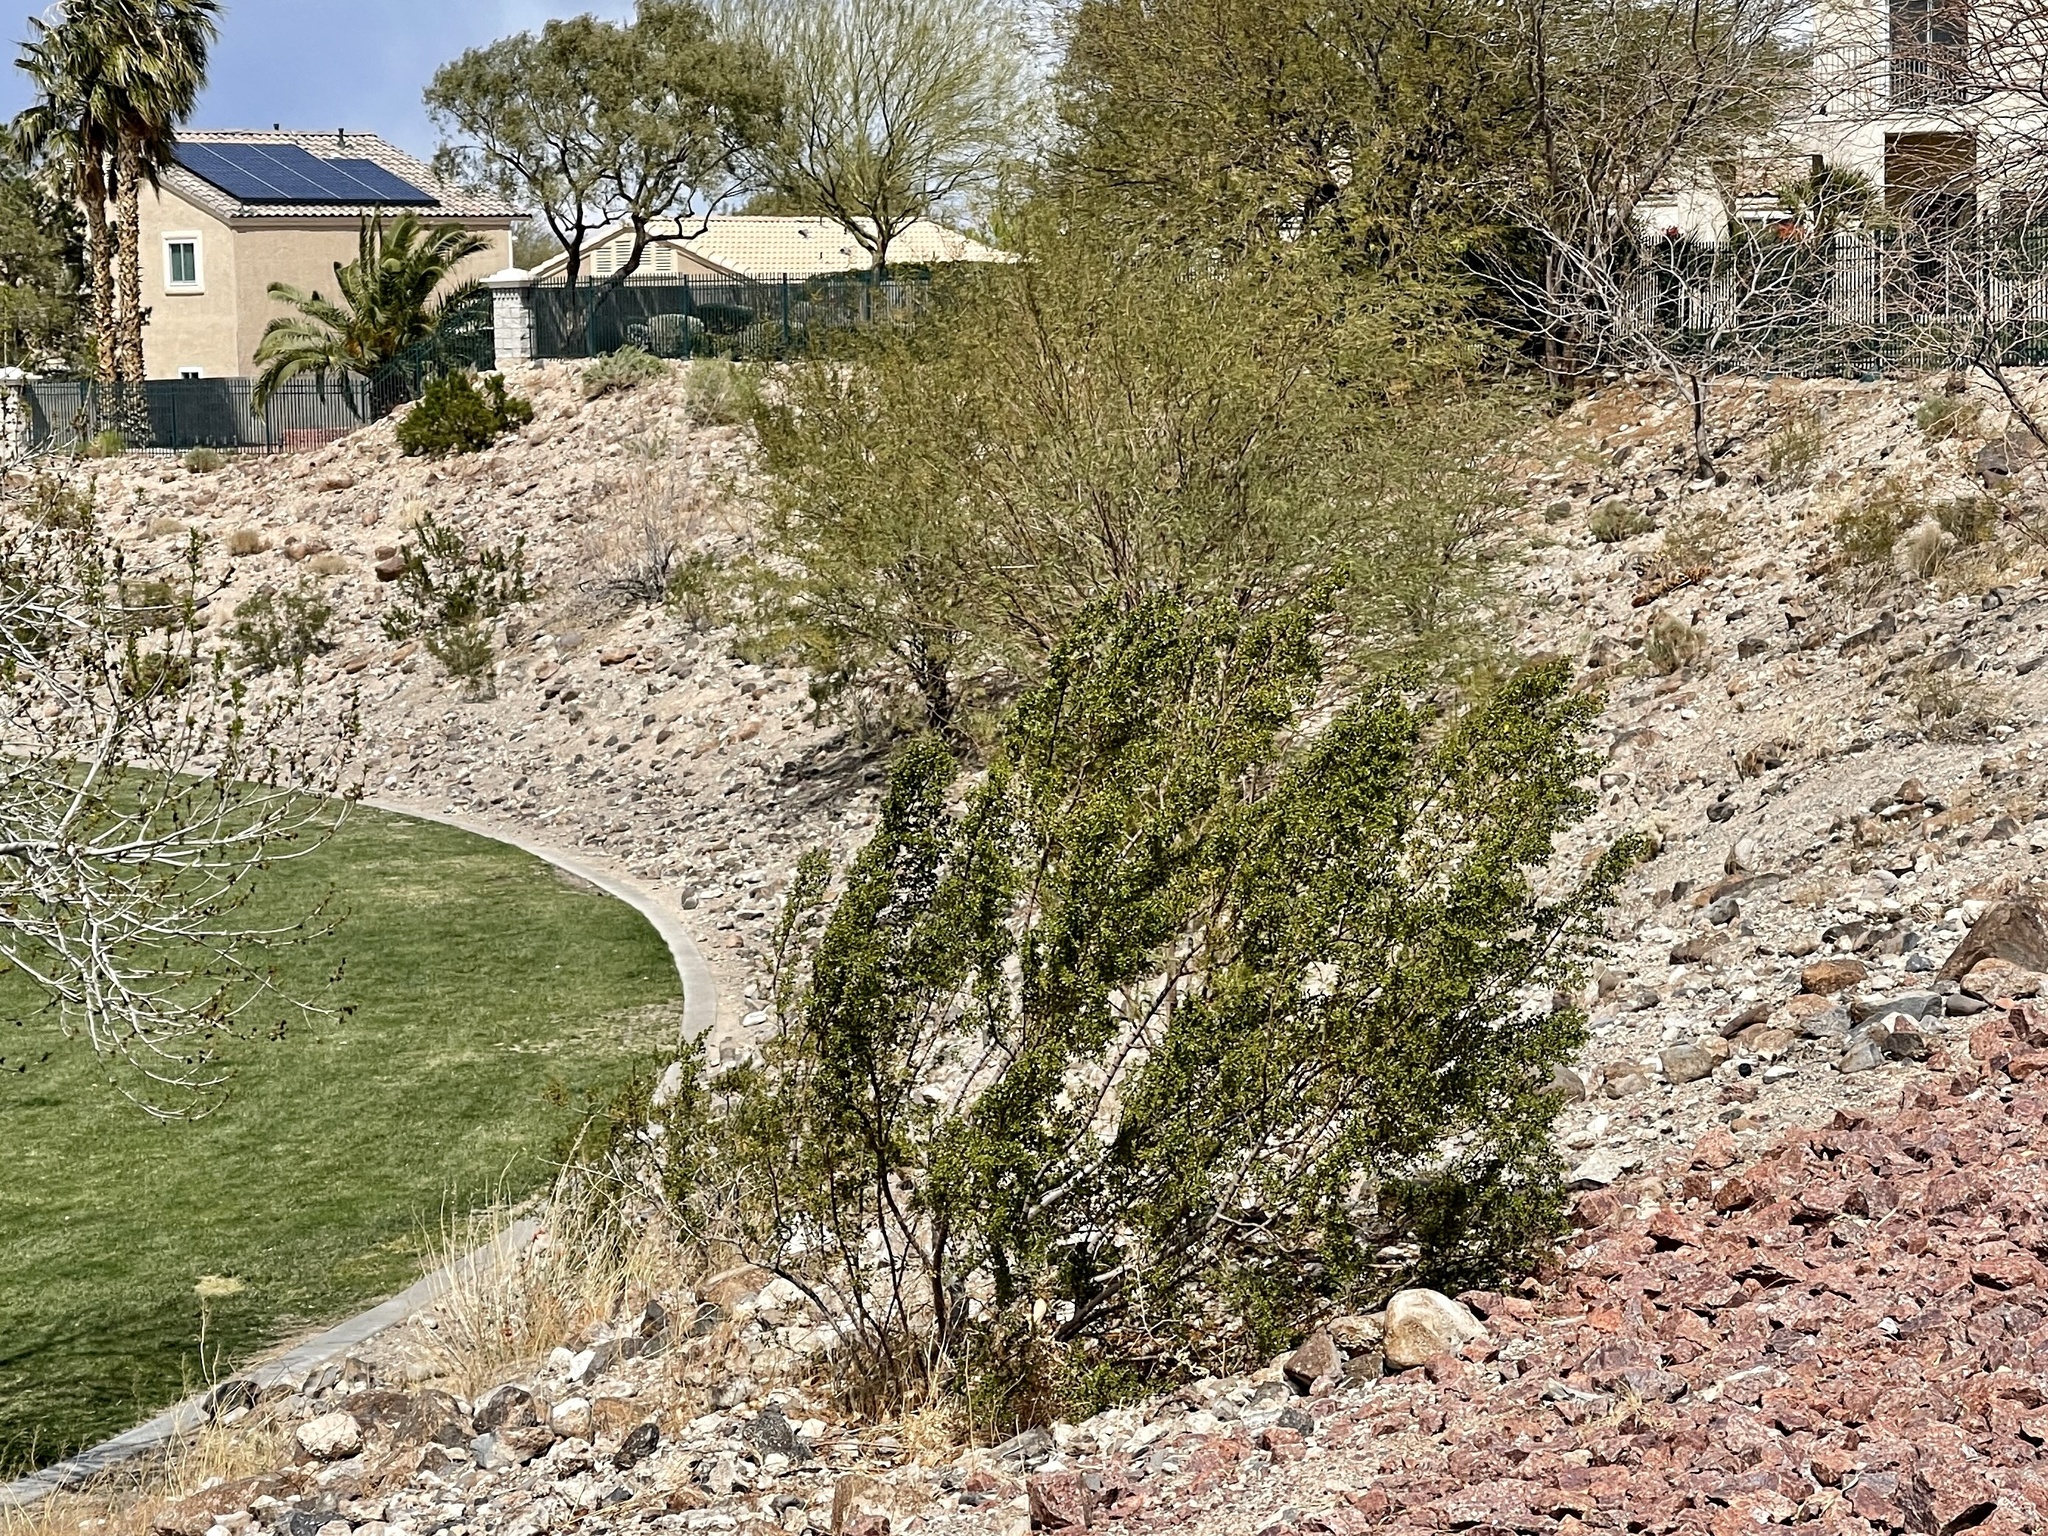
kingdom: Plantae
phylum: Tracheophyta
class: Magnoliopsida
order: Zygophyllales
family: Zygophyllaceae
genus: Larrea
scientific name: Larrea tridentata
